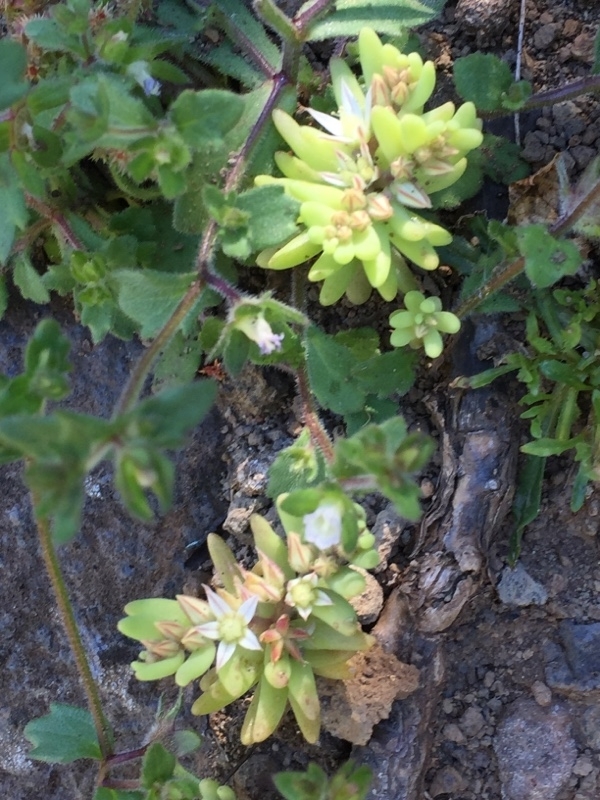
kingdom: Plantae
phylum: Tracheophyta
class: Magnoliopsida
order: Saxifragales
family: Crassulaceae
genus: Sedum
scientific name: Sedum rubens
